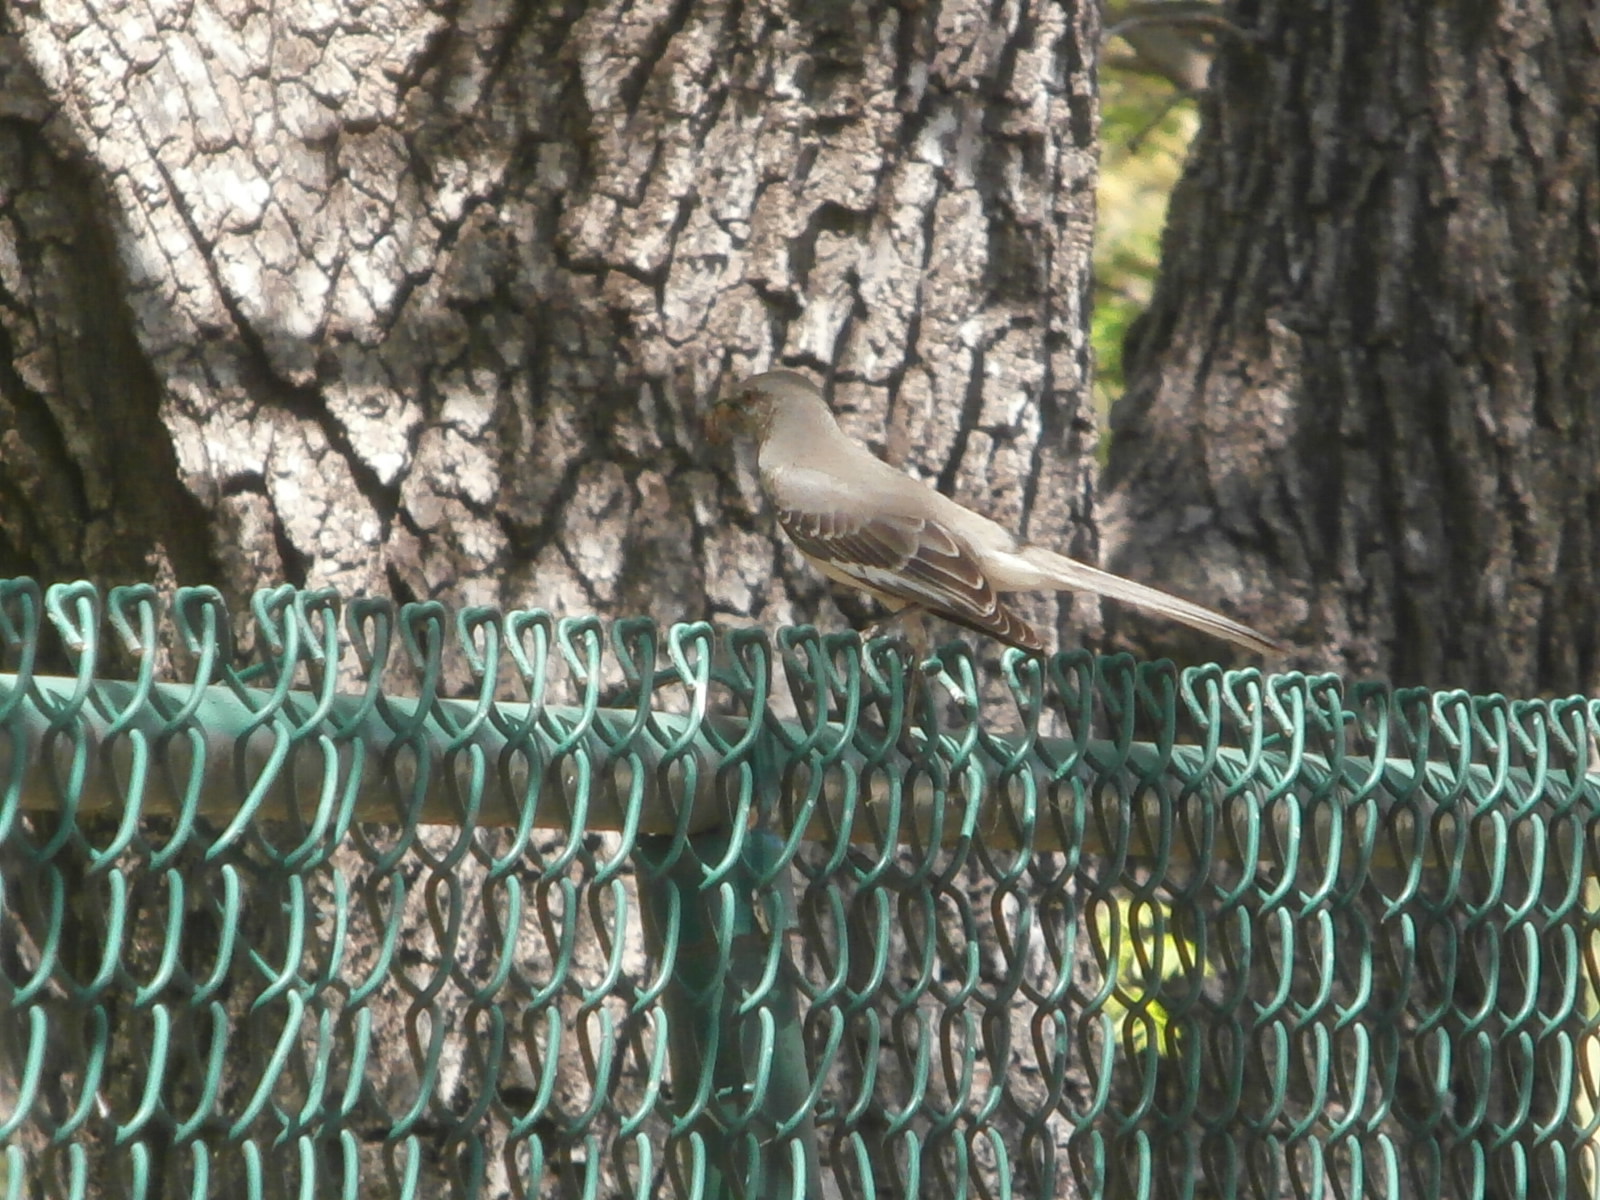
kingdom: Animalia
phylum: Chordata
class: Aves
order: Passeriformes
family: Mimidae
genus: Mimus
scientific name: Mimus polyglottos
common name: Northern mockingbird
